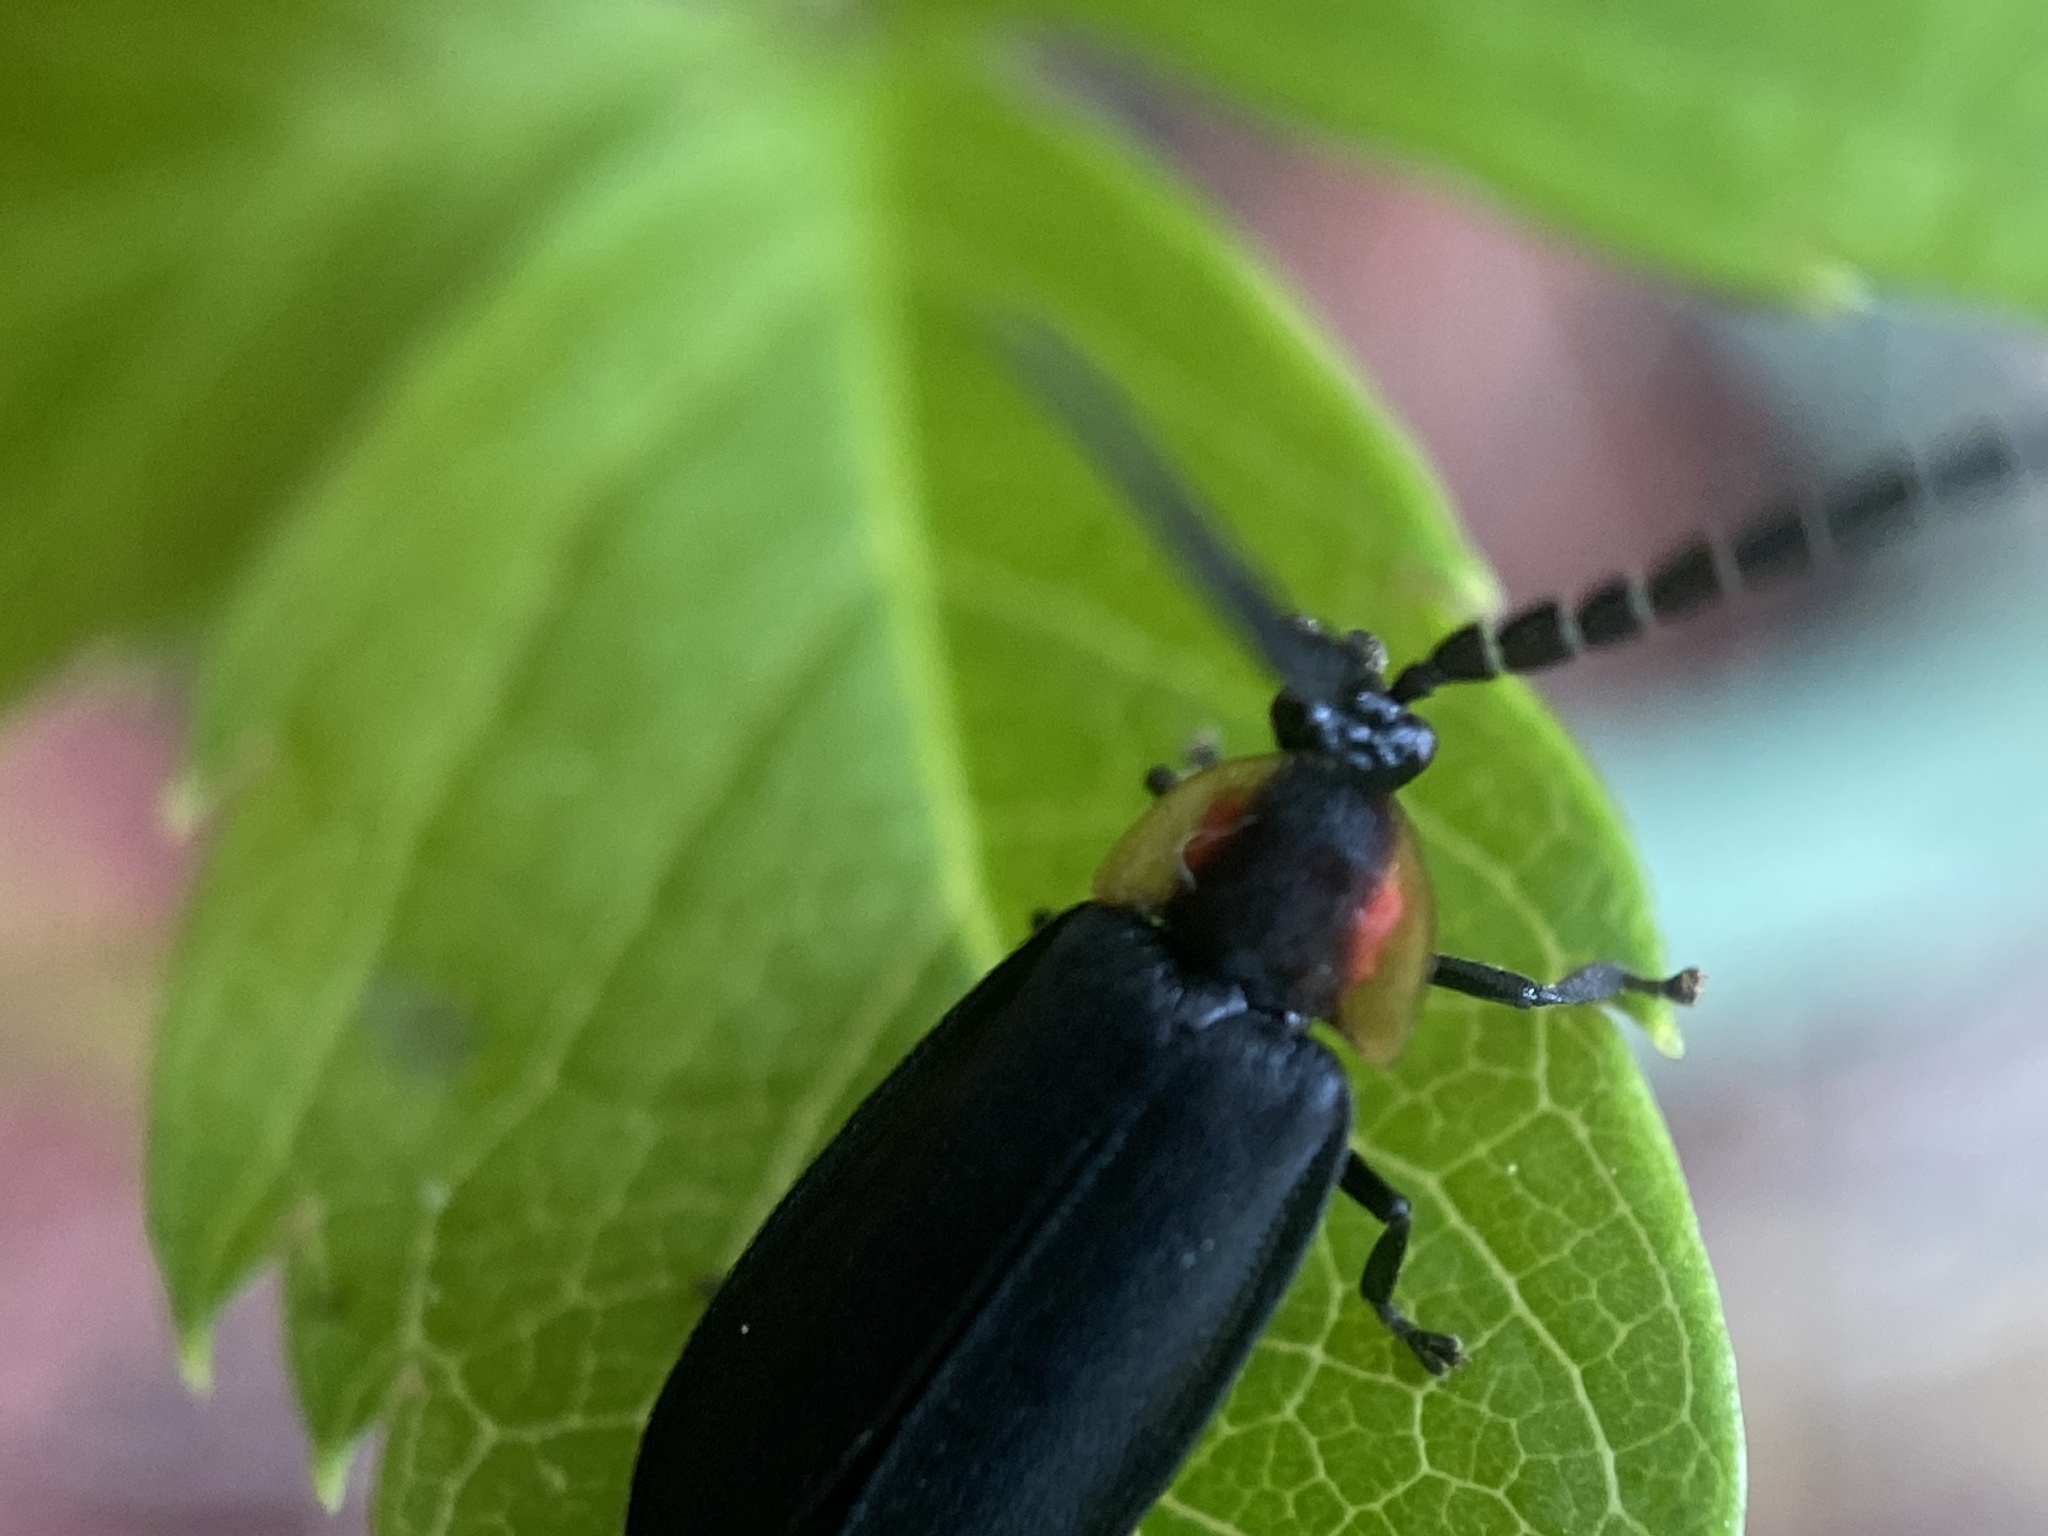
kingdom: Animalia
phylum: Arthropoda
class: Insecta
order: Coleoptera
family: Lampyridae
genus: Lucidota
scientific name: Lucidota atra
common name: Black firefly
